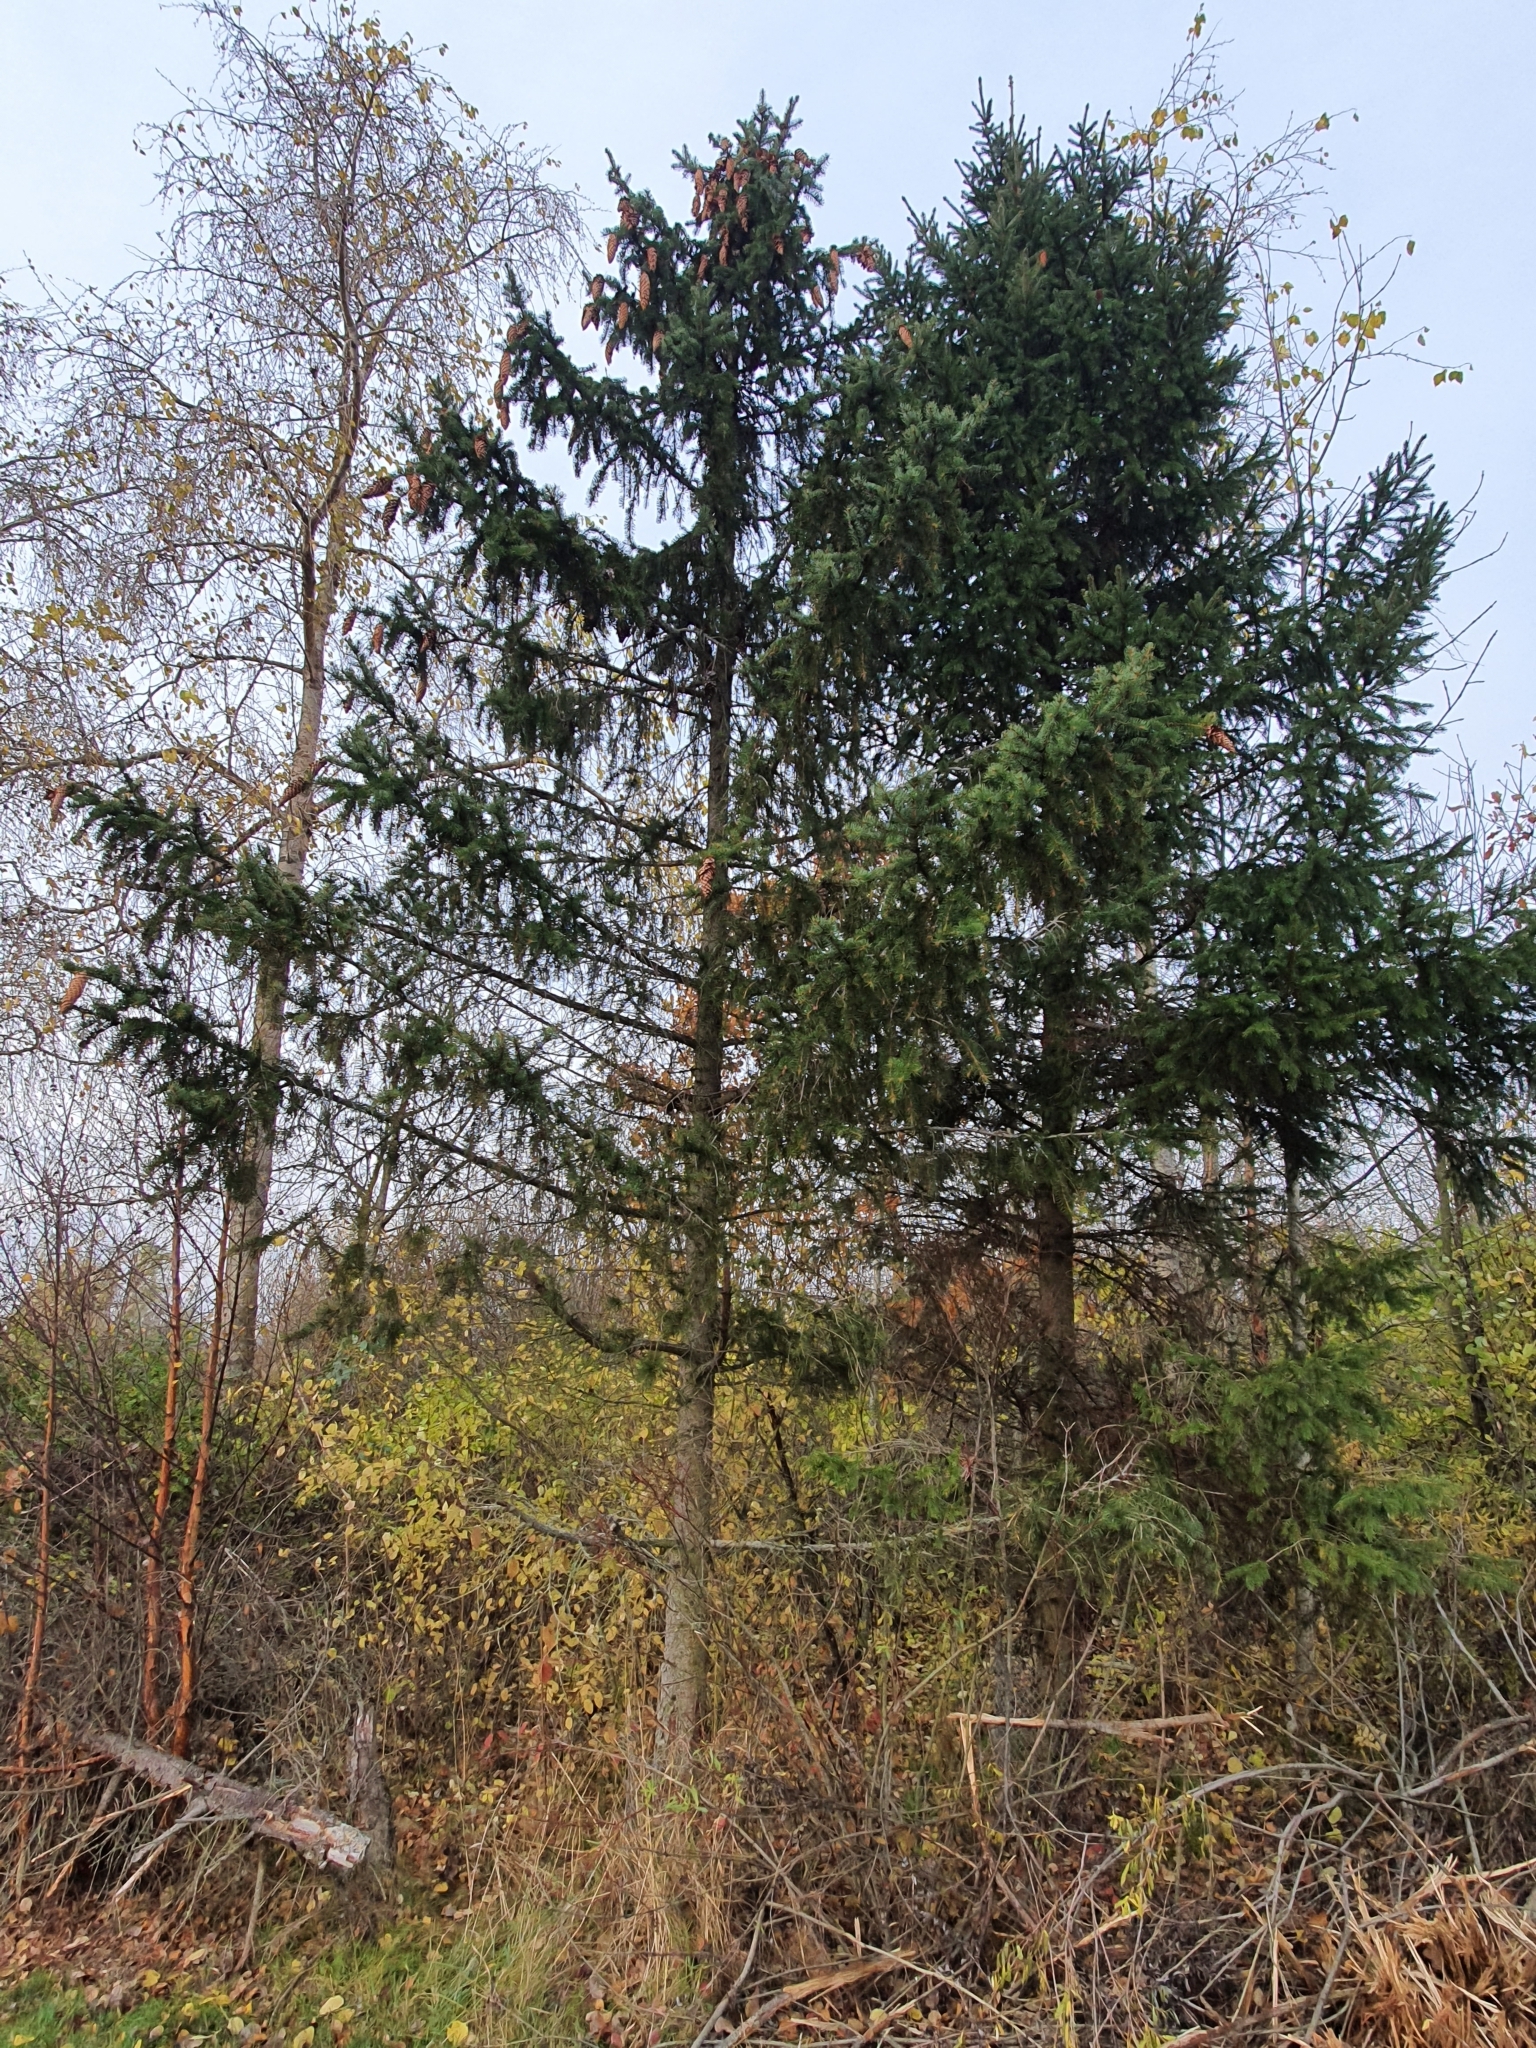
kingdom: Plantae
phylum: Tracheophyta
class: Pinopsida
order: Pinales
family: Pinaceae
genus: Picea
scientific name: Picea abies
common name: Norway spruce
